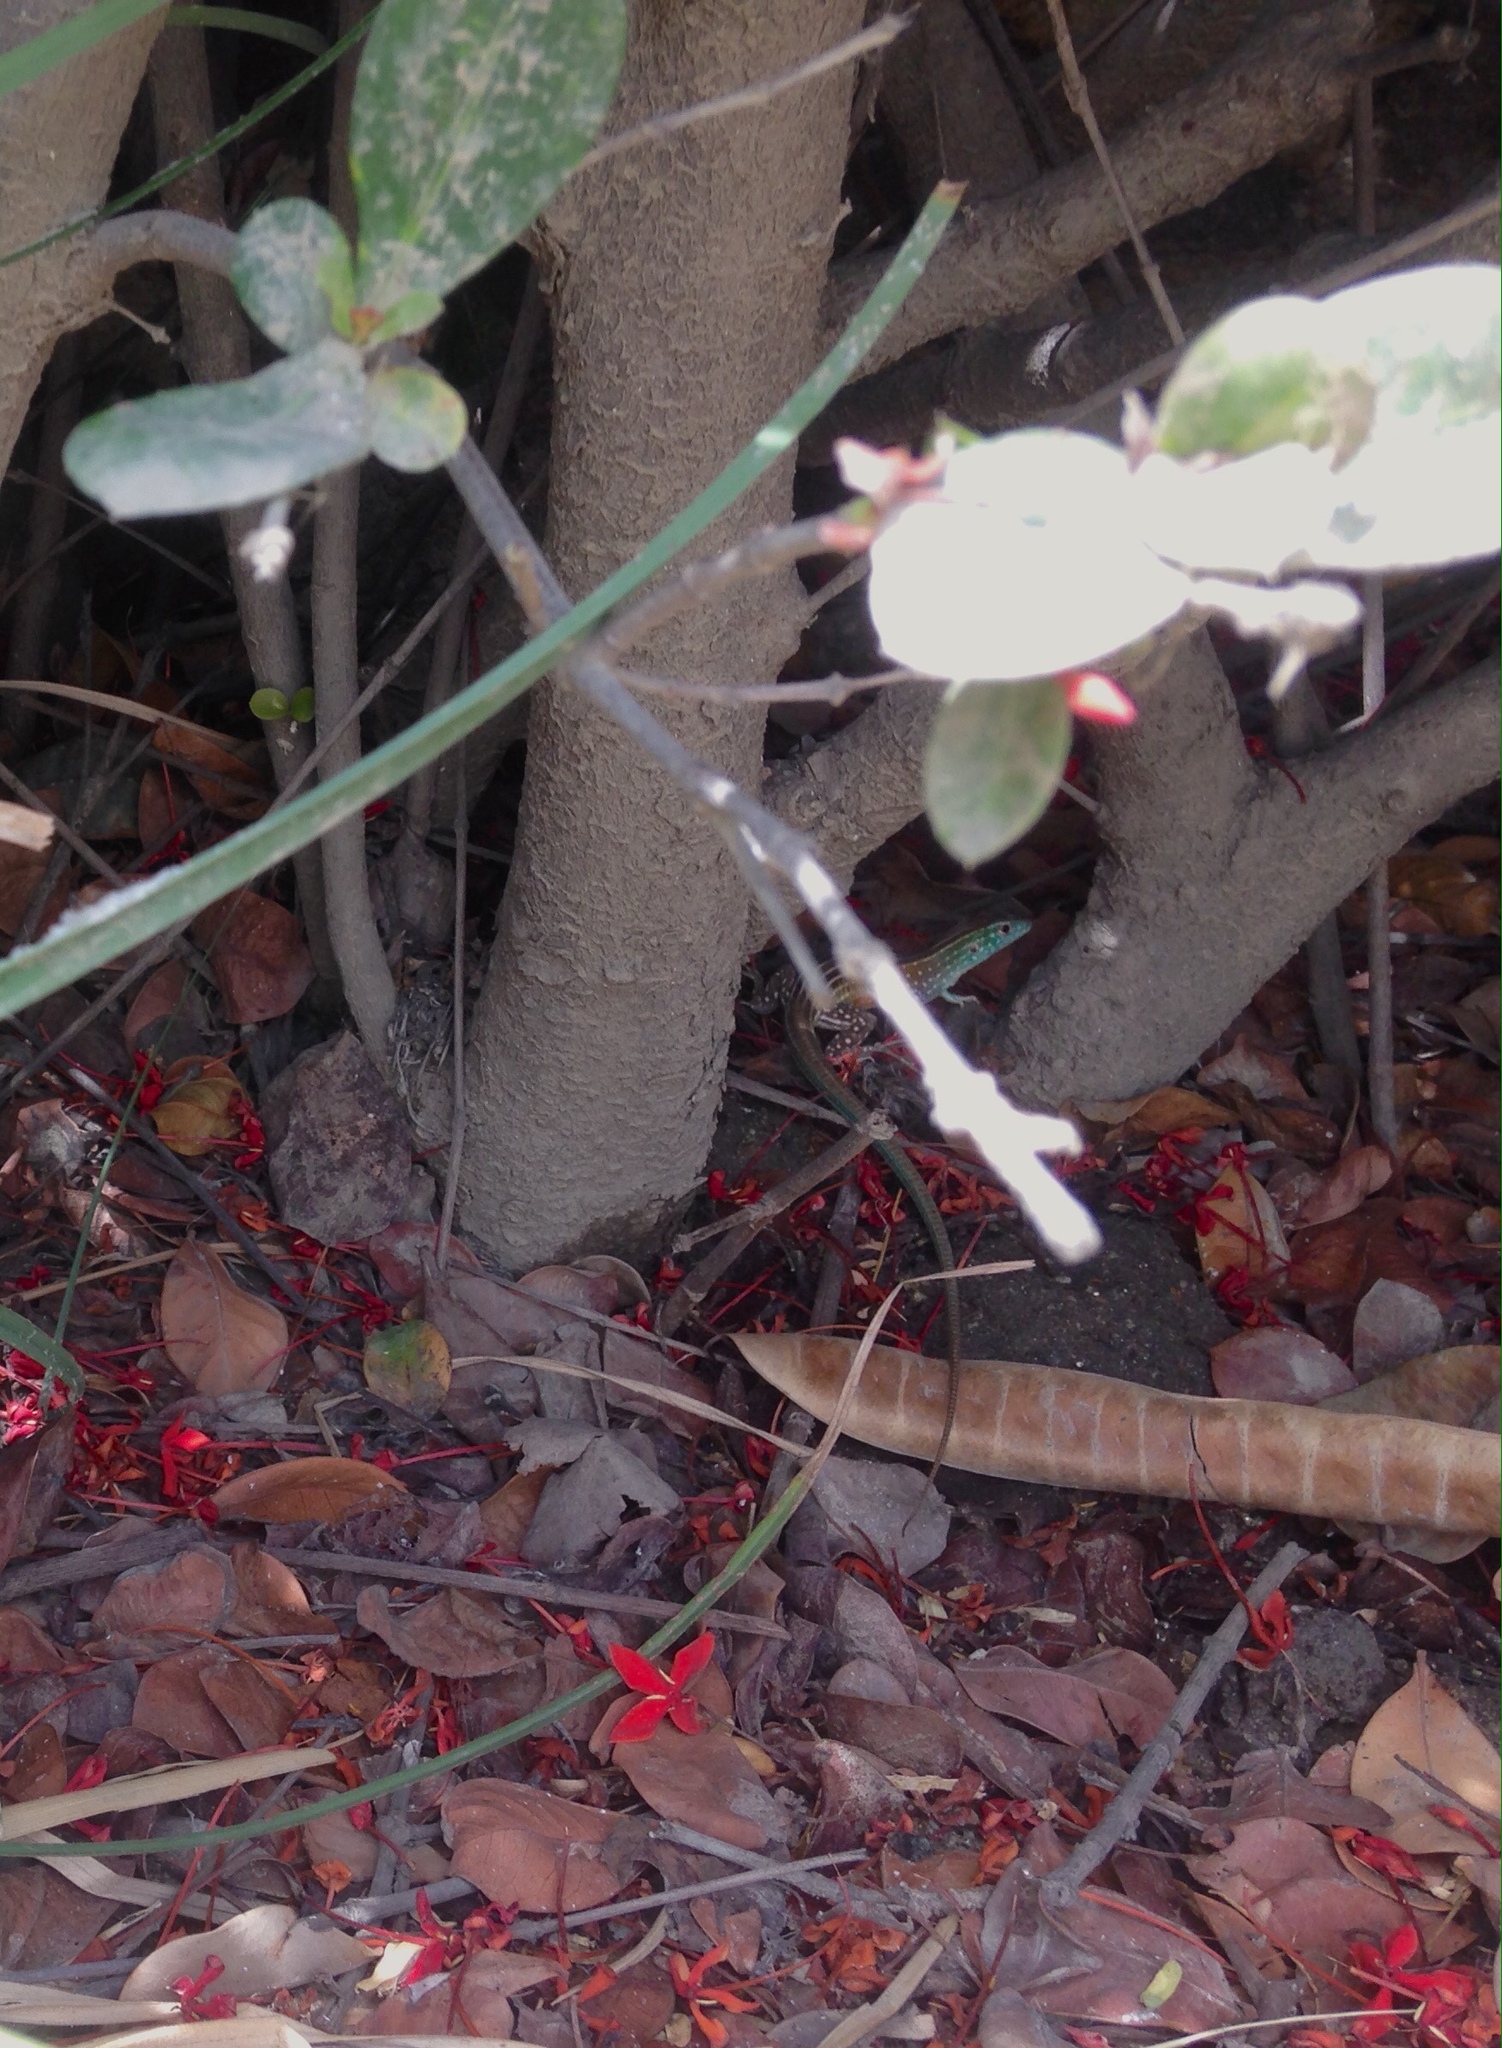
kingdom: Animalia
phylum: Chordata
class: Squamata
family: Teiidae
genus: Cnemidophorus
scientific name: Cnemidophorus gaigei
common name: Gaige’s rainbow lizard
